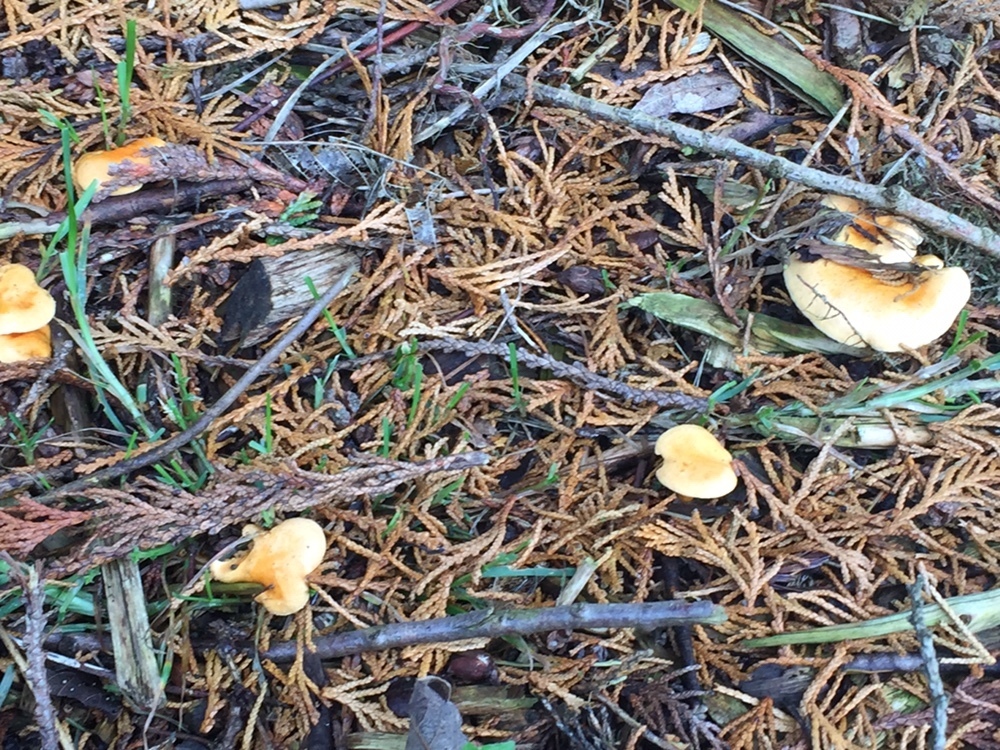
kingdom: Fungi
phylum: Basidiomycota
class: Agaricomycetes
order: Boletales
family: Hygrophoropsidaceae
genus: Hygrophoropsis
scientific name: Hygrophoropsis aurantiaca
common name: False chanterelle
